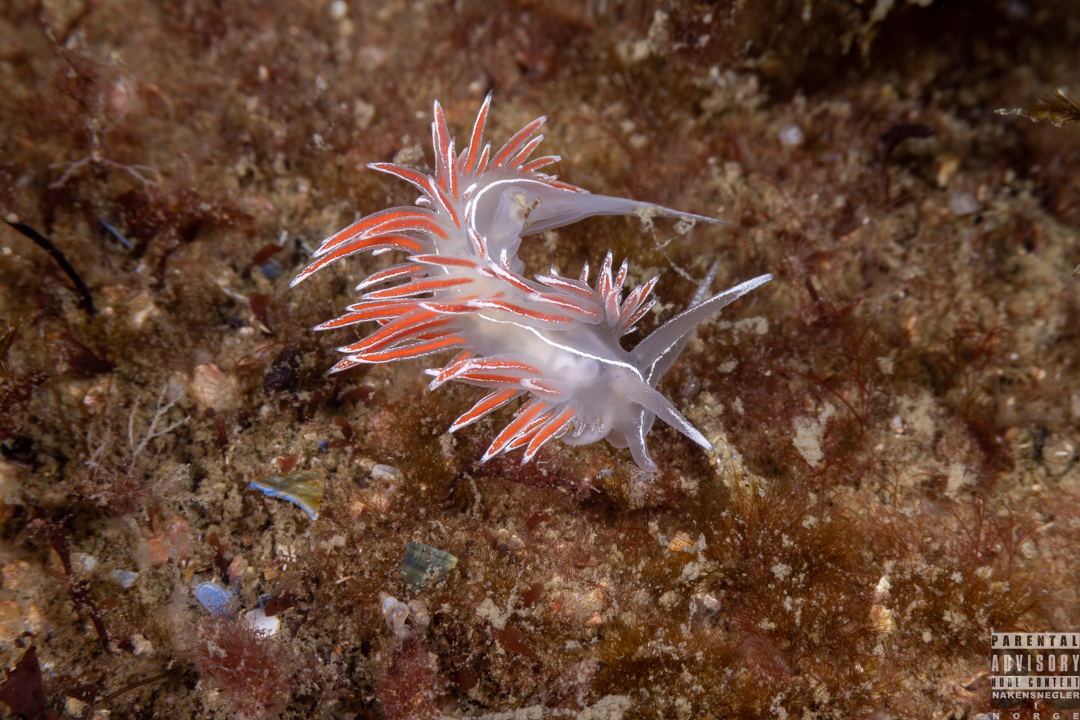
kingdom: Animalia
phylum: Mollusca
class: Gastropoda
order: Nudibranchia
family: Coryphellidae
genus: Coryphella
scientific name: Coryphella lineata
